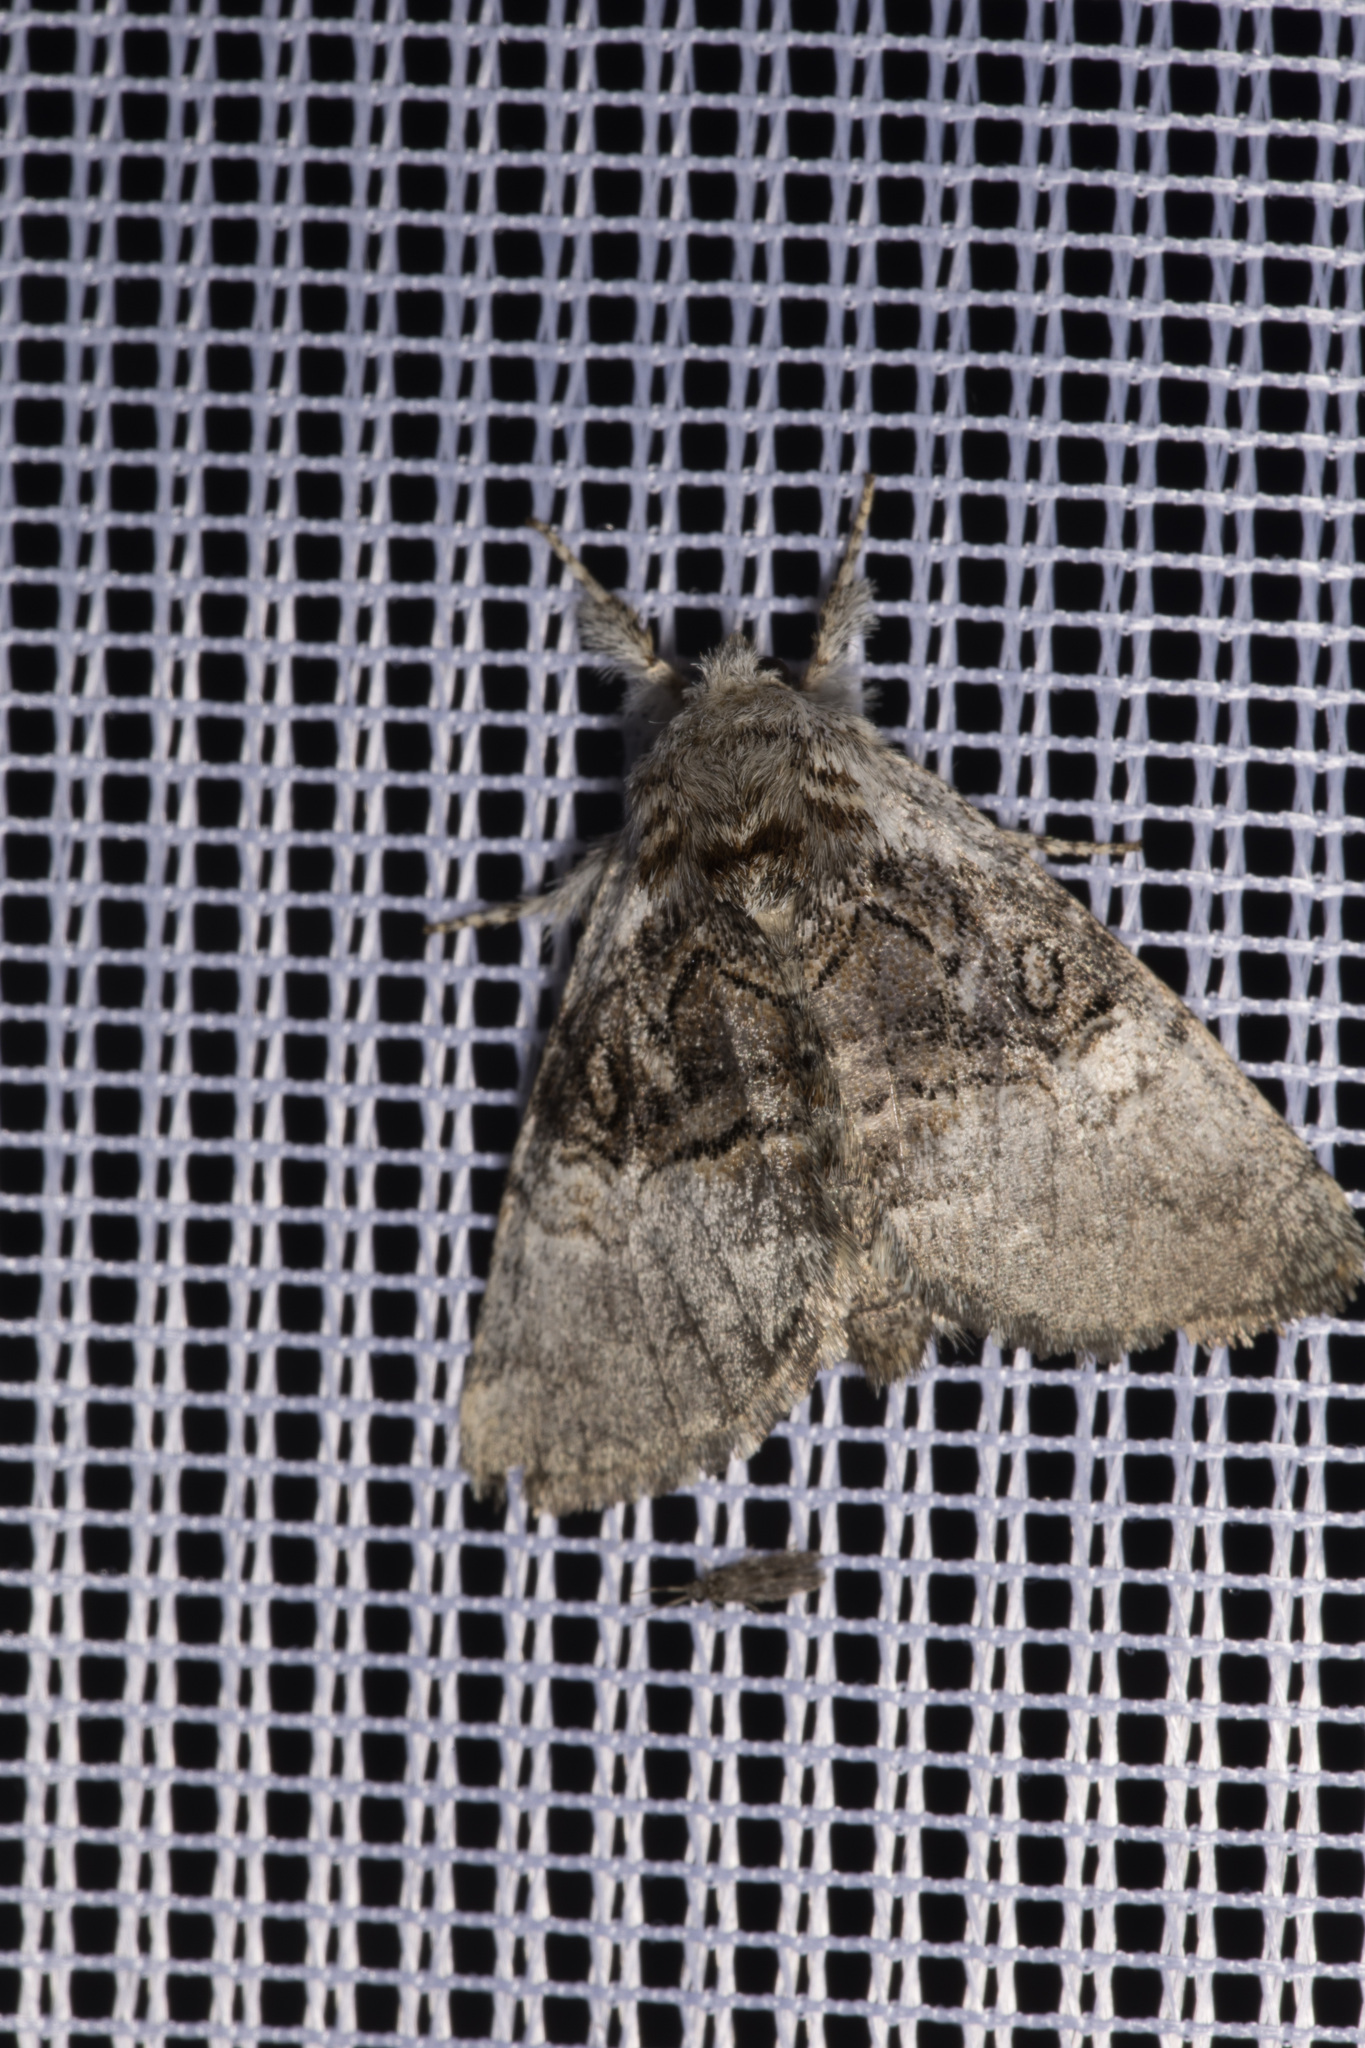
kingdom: Animalia
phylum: Arthropoda
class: Insecta
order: Lepidoptera
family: Noctuidae
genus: Colocasia
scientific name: Colocasia coryli
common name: Nut-tree tussock
